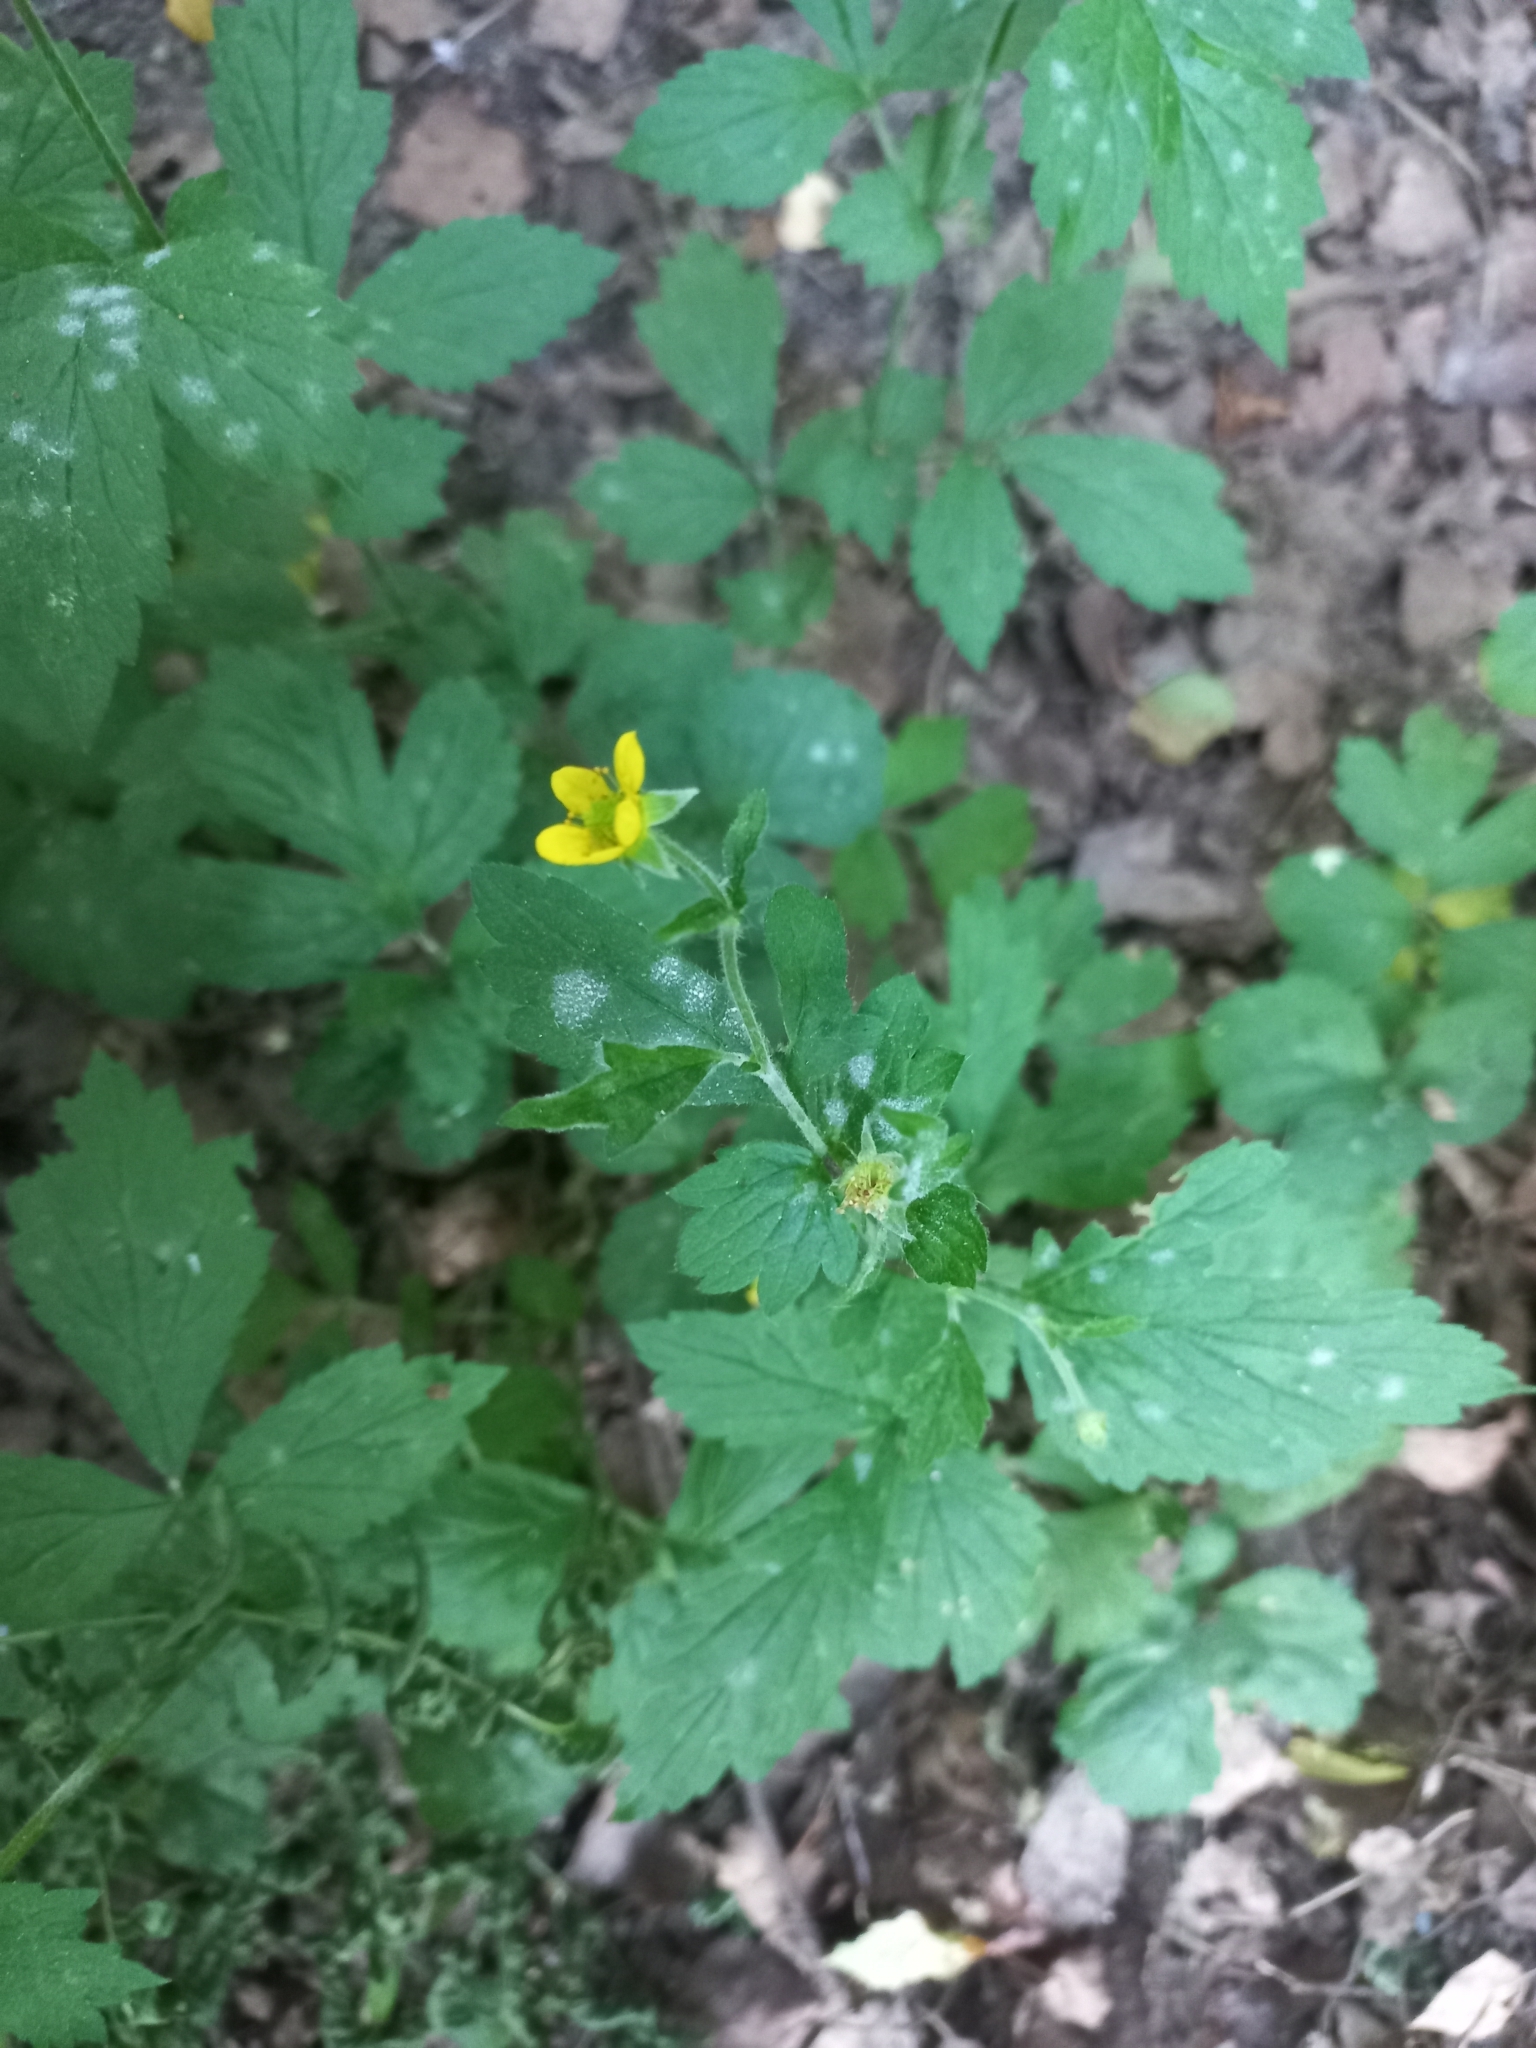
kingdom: Plantae
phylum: Tracheophyta
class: Magnoliopsida
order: Rosales
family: Rosaceae
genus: Geum
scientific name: Geum urbanum
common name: Wood avens
